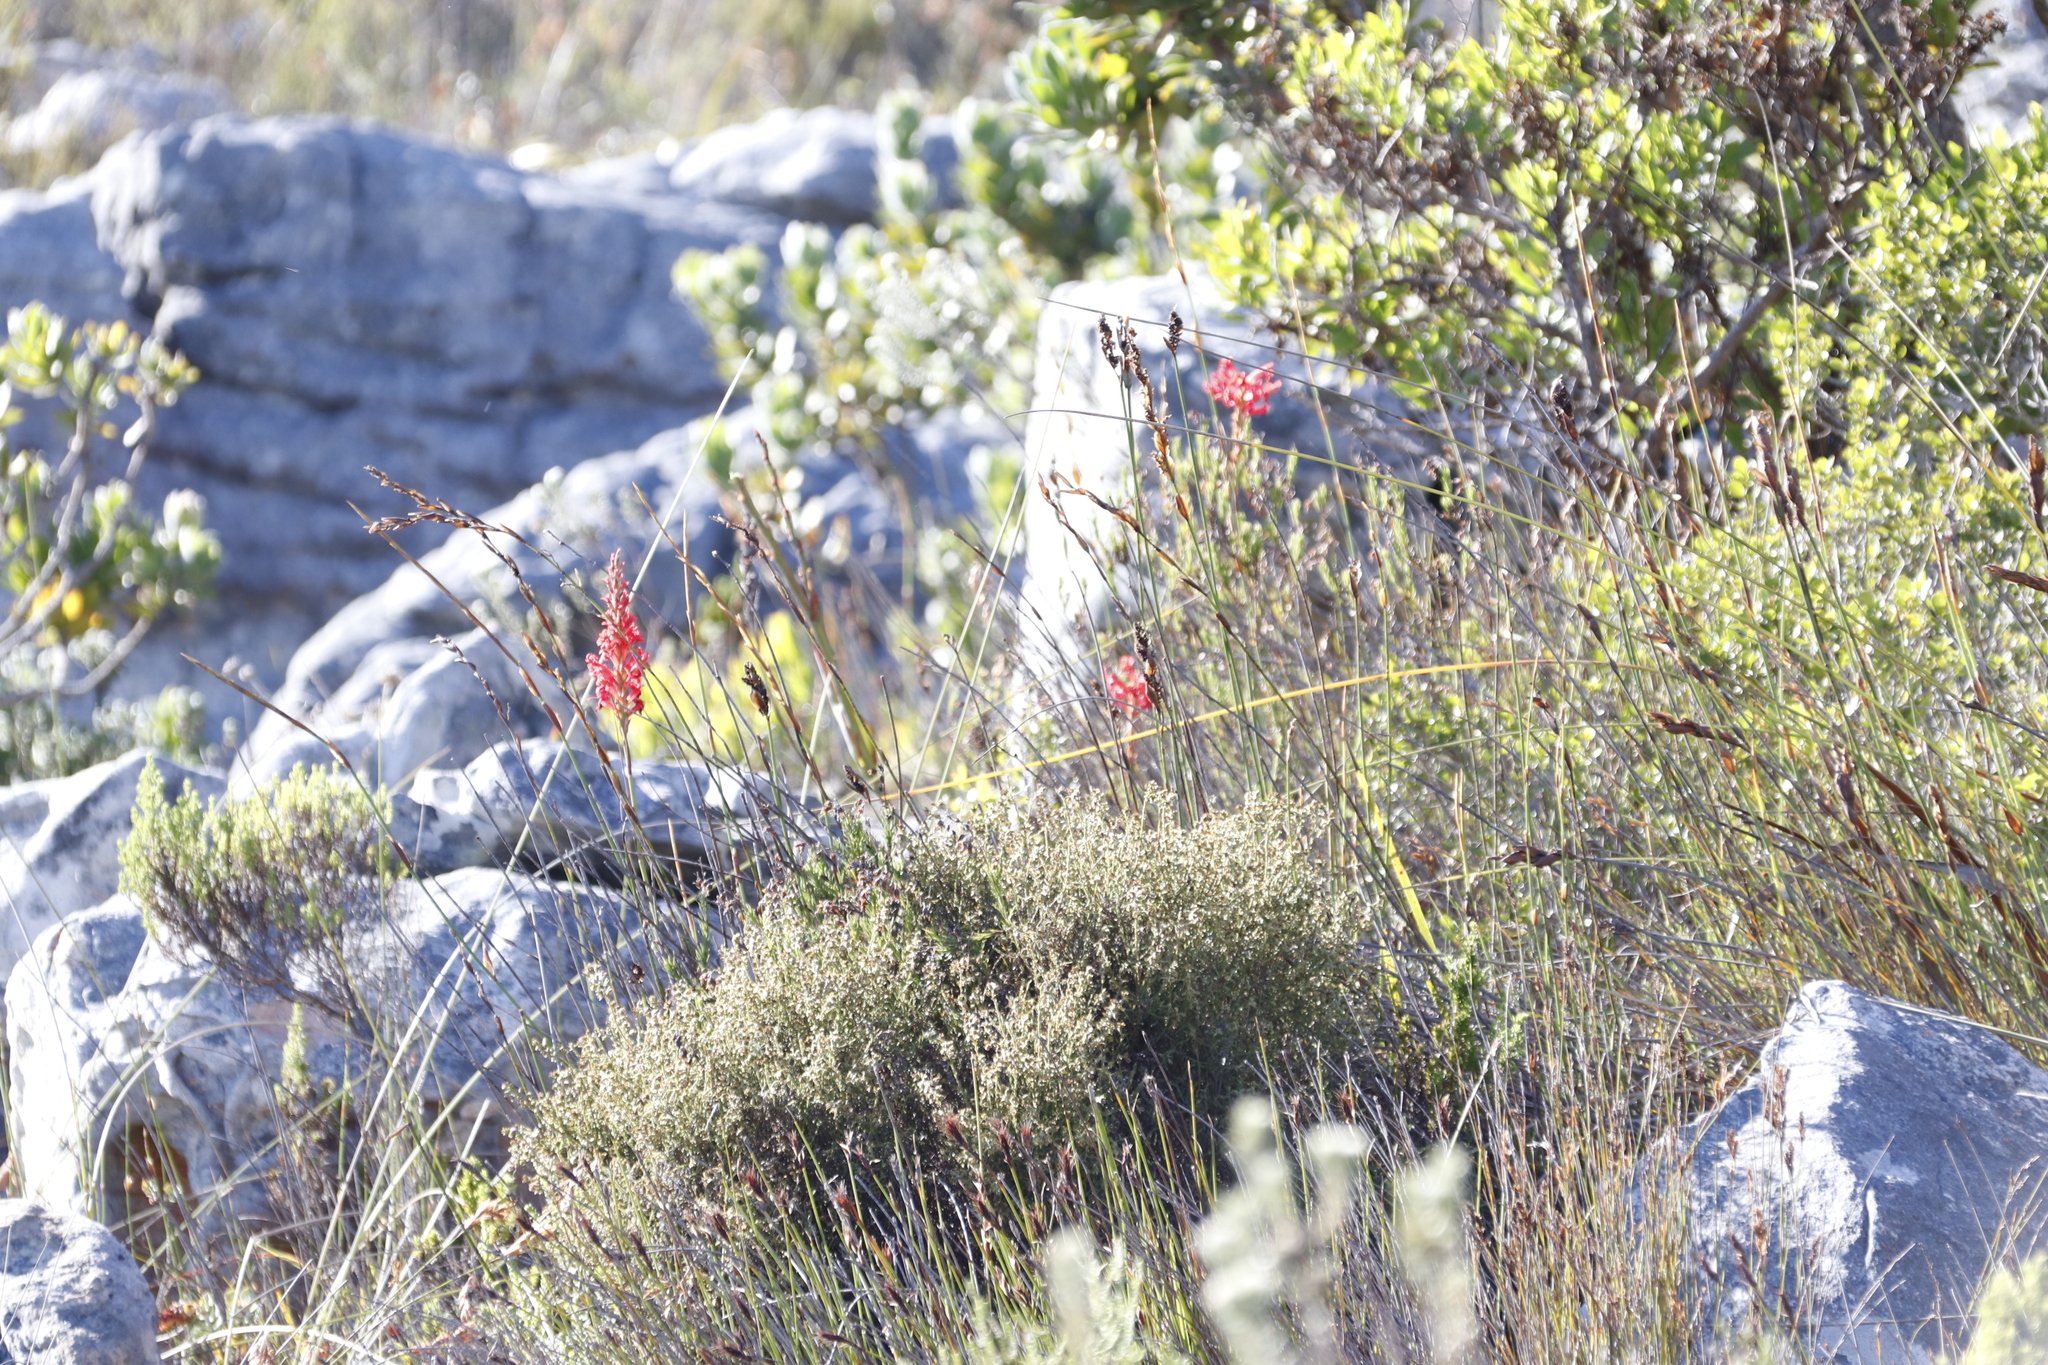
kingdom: Plantae
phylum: Tracheophyta
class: Liliopsida
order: Asparagales
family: Iridaceae
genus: Tritoniopsis
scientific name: Tritoniopsis triticea
